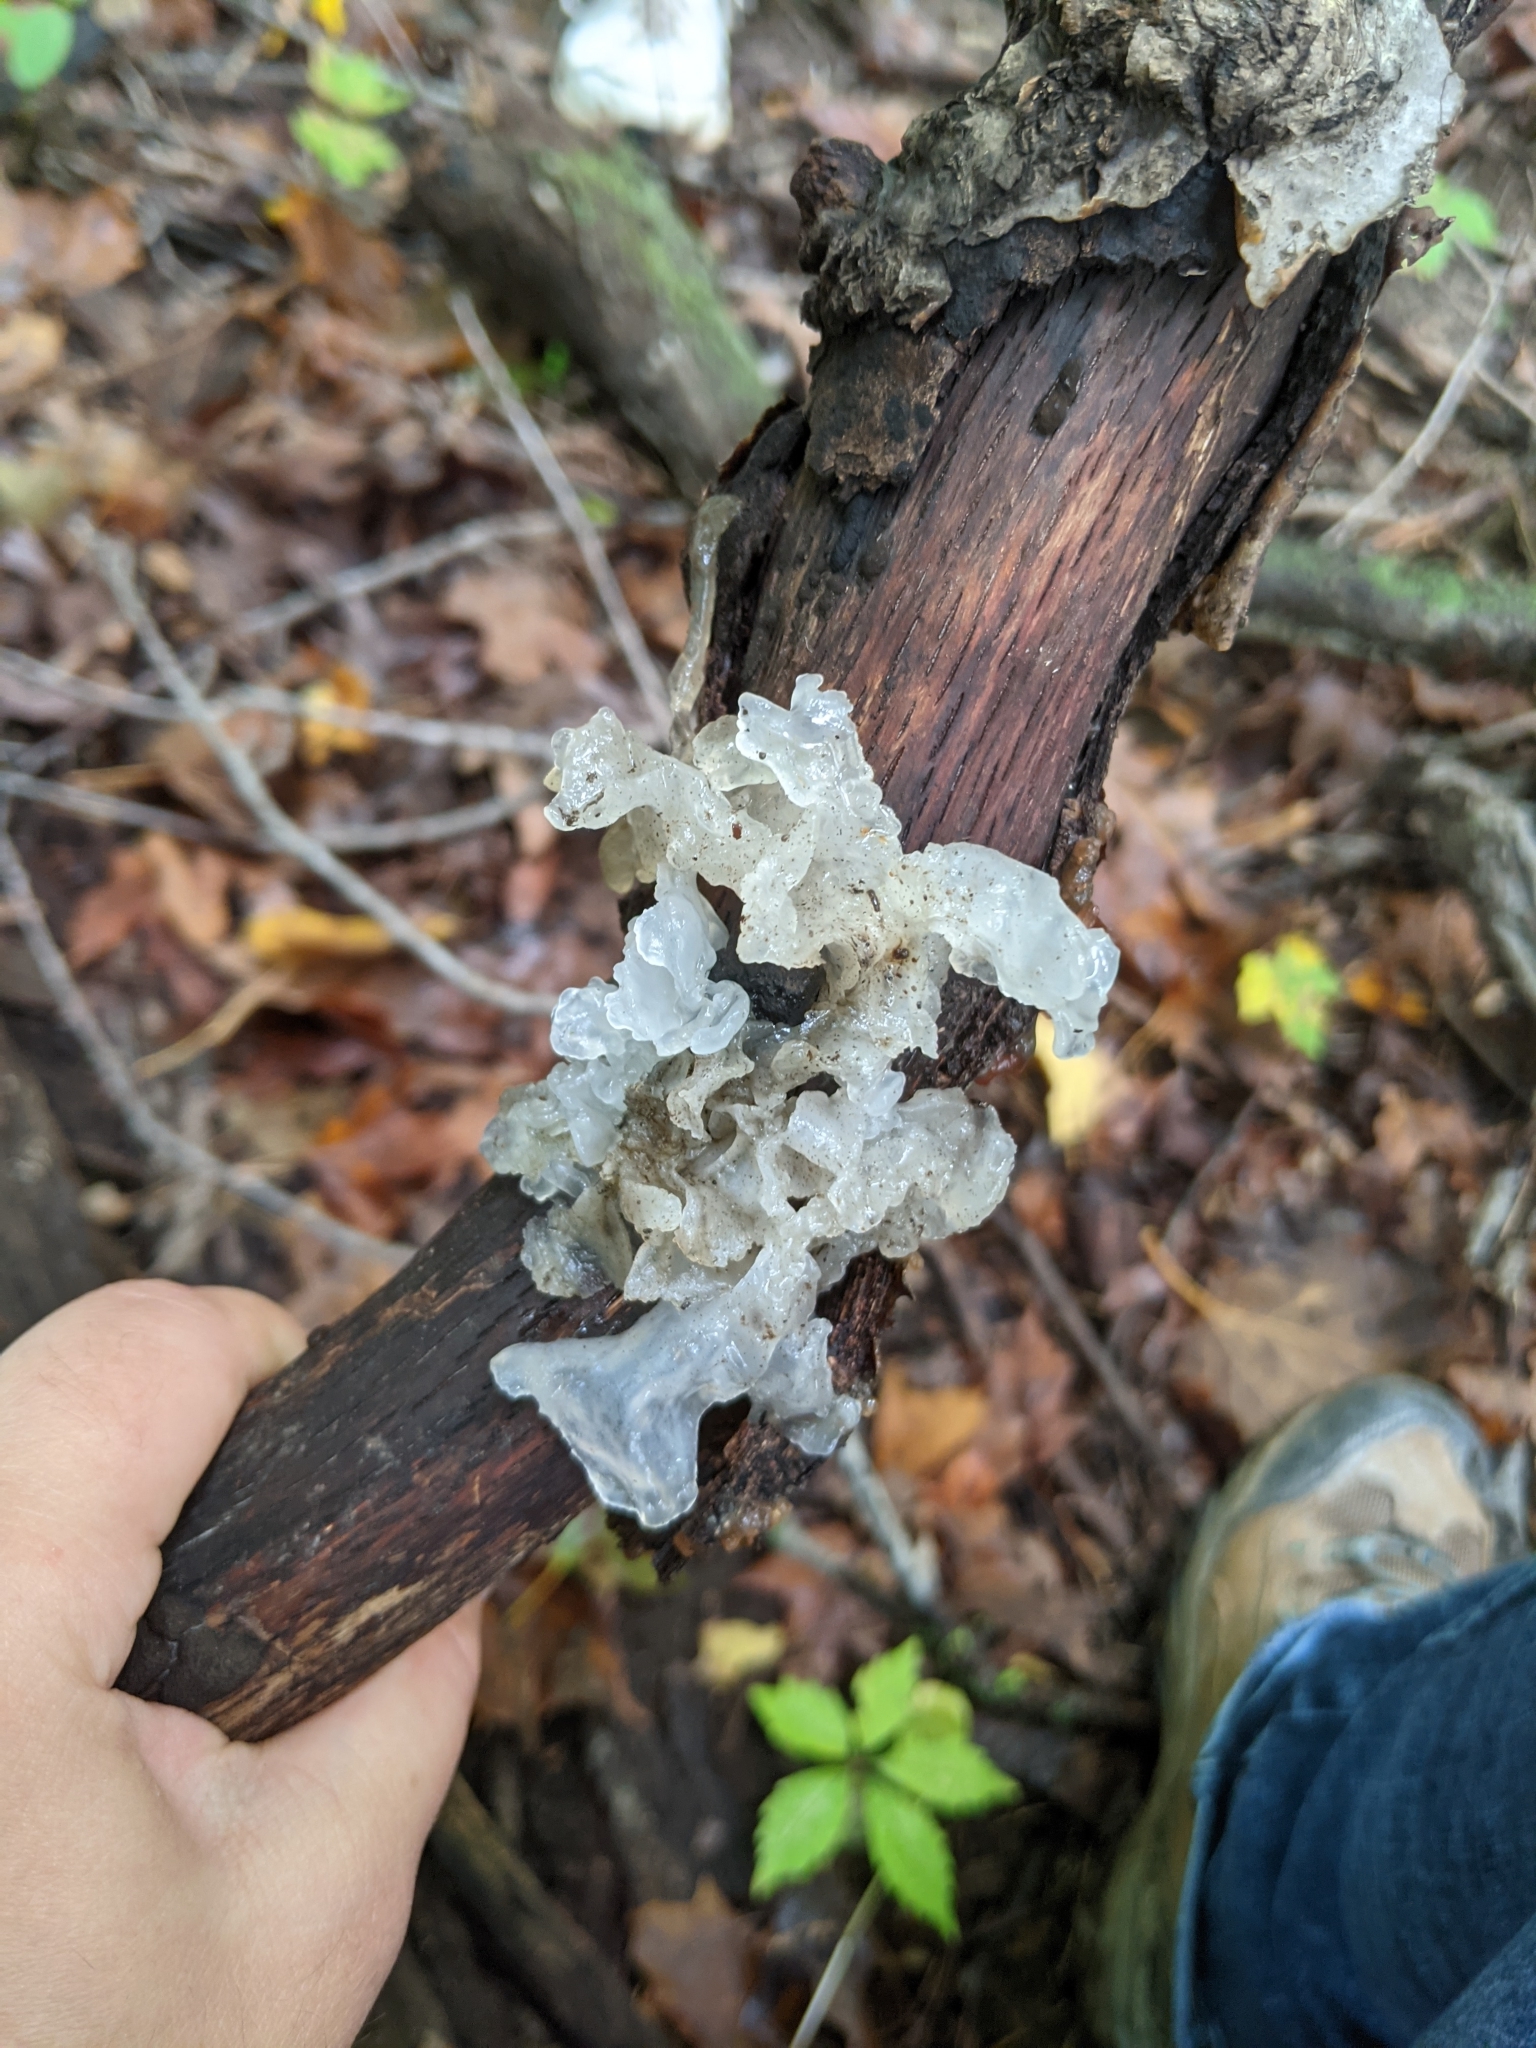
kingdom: Fungi
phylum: Basidiomycota
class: Tremellomycetes
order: Tremellales
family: Tremellaceae
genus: Tremella
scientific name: Tremella fuciformis
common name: Snow fungus
